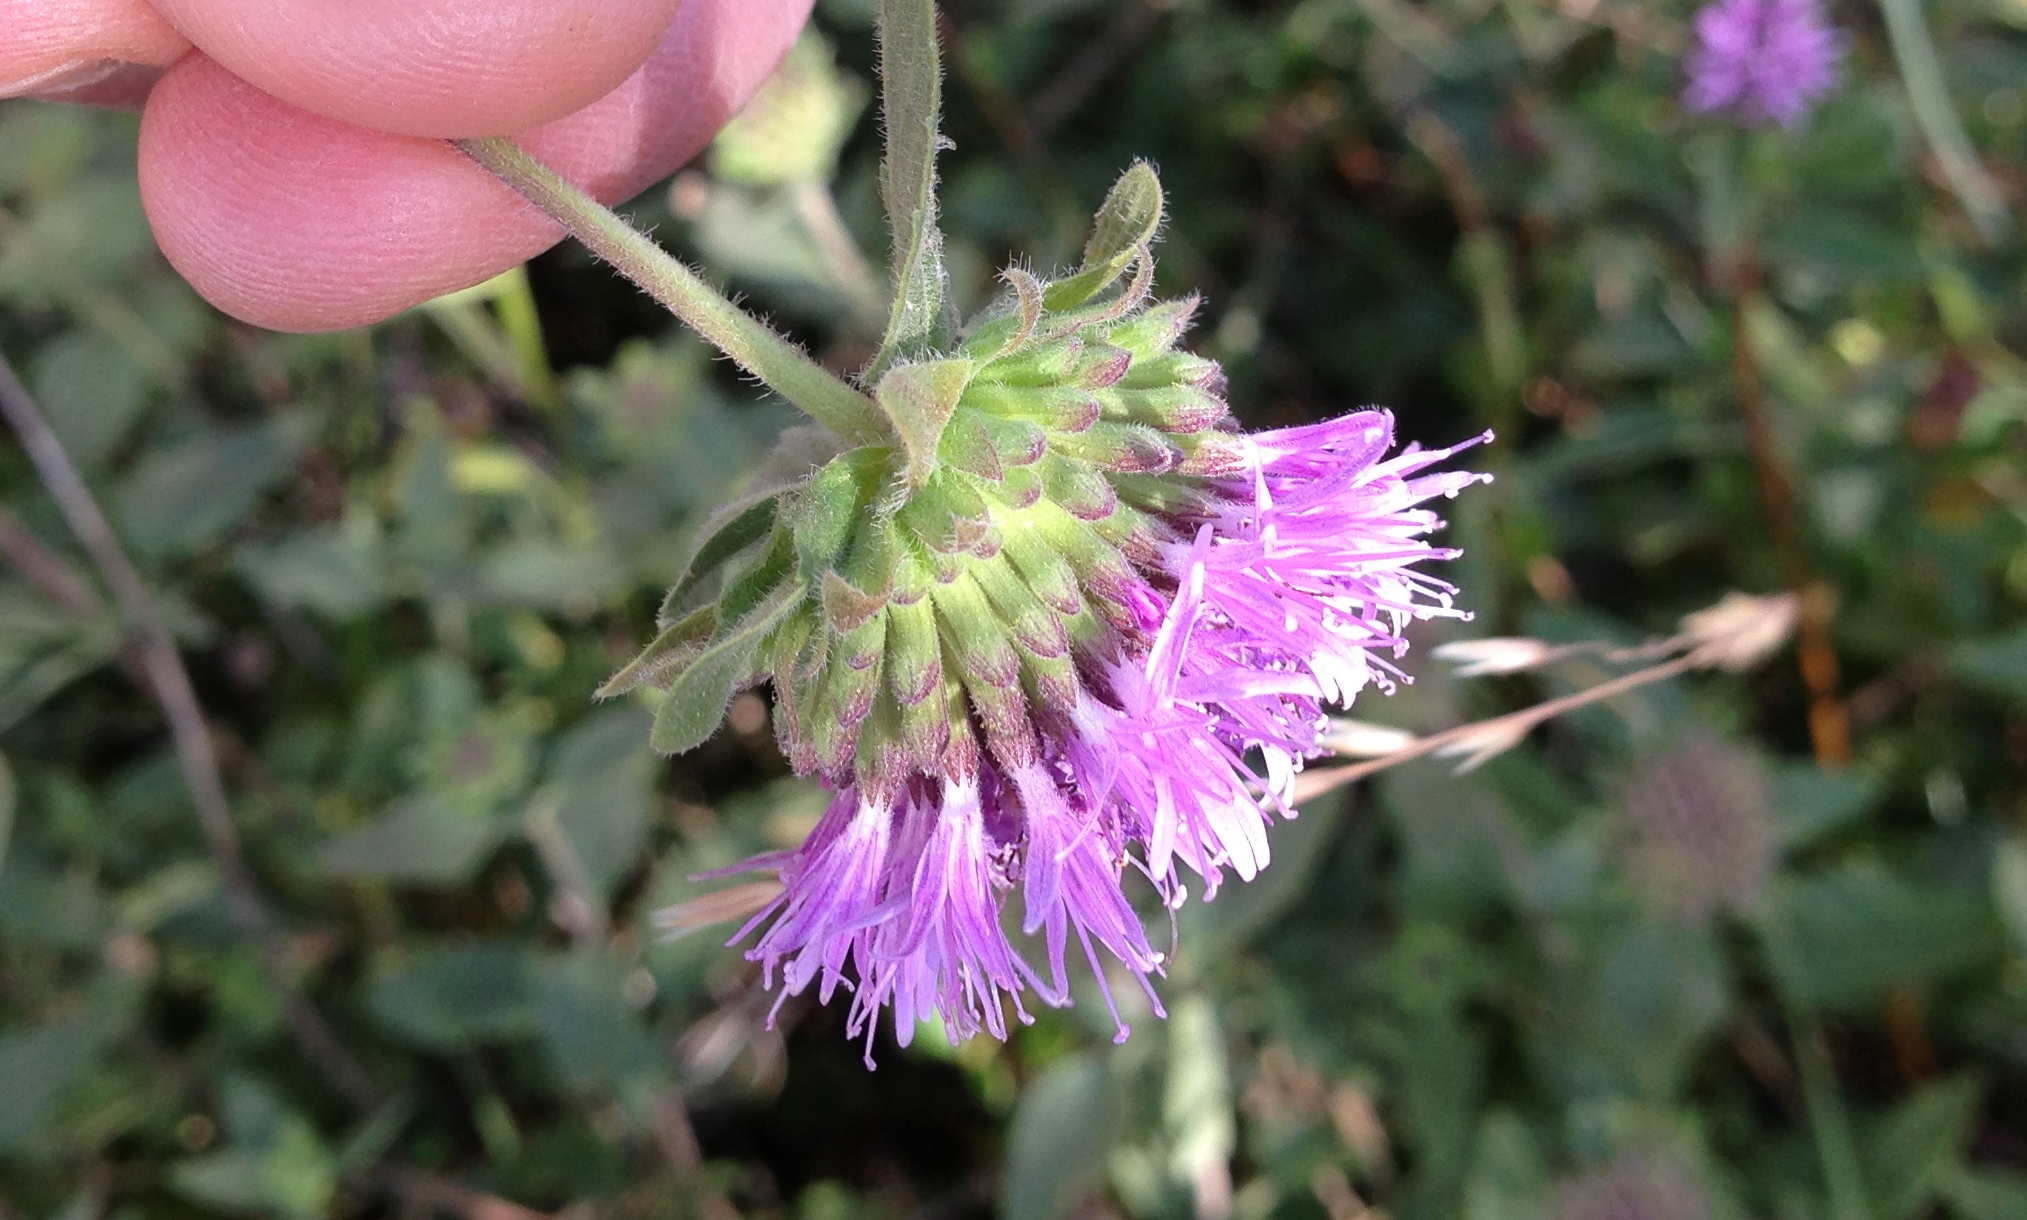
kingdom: Plantae
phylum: Tracheophyta
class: Magnoliopsida
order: Lamiales
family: Lamiaceae
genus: Monardella
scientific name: Monardella odoratissima
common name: Pacific monardella
